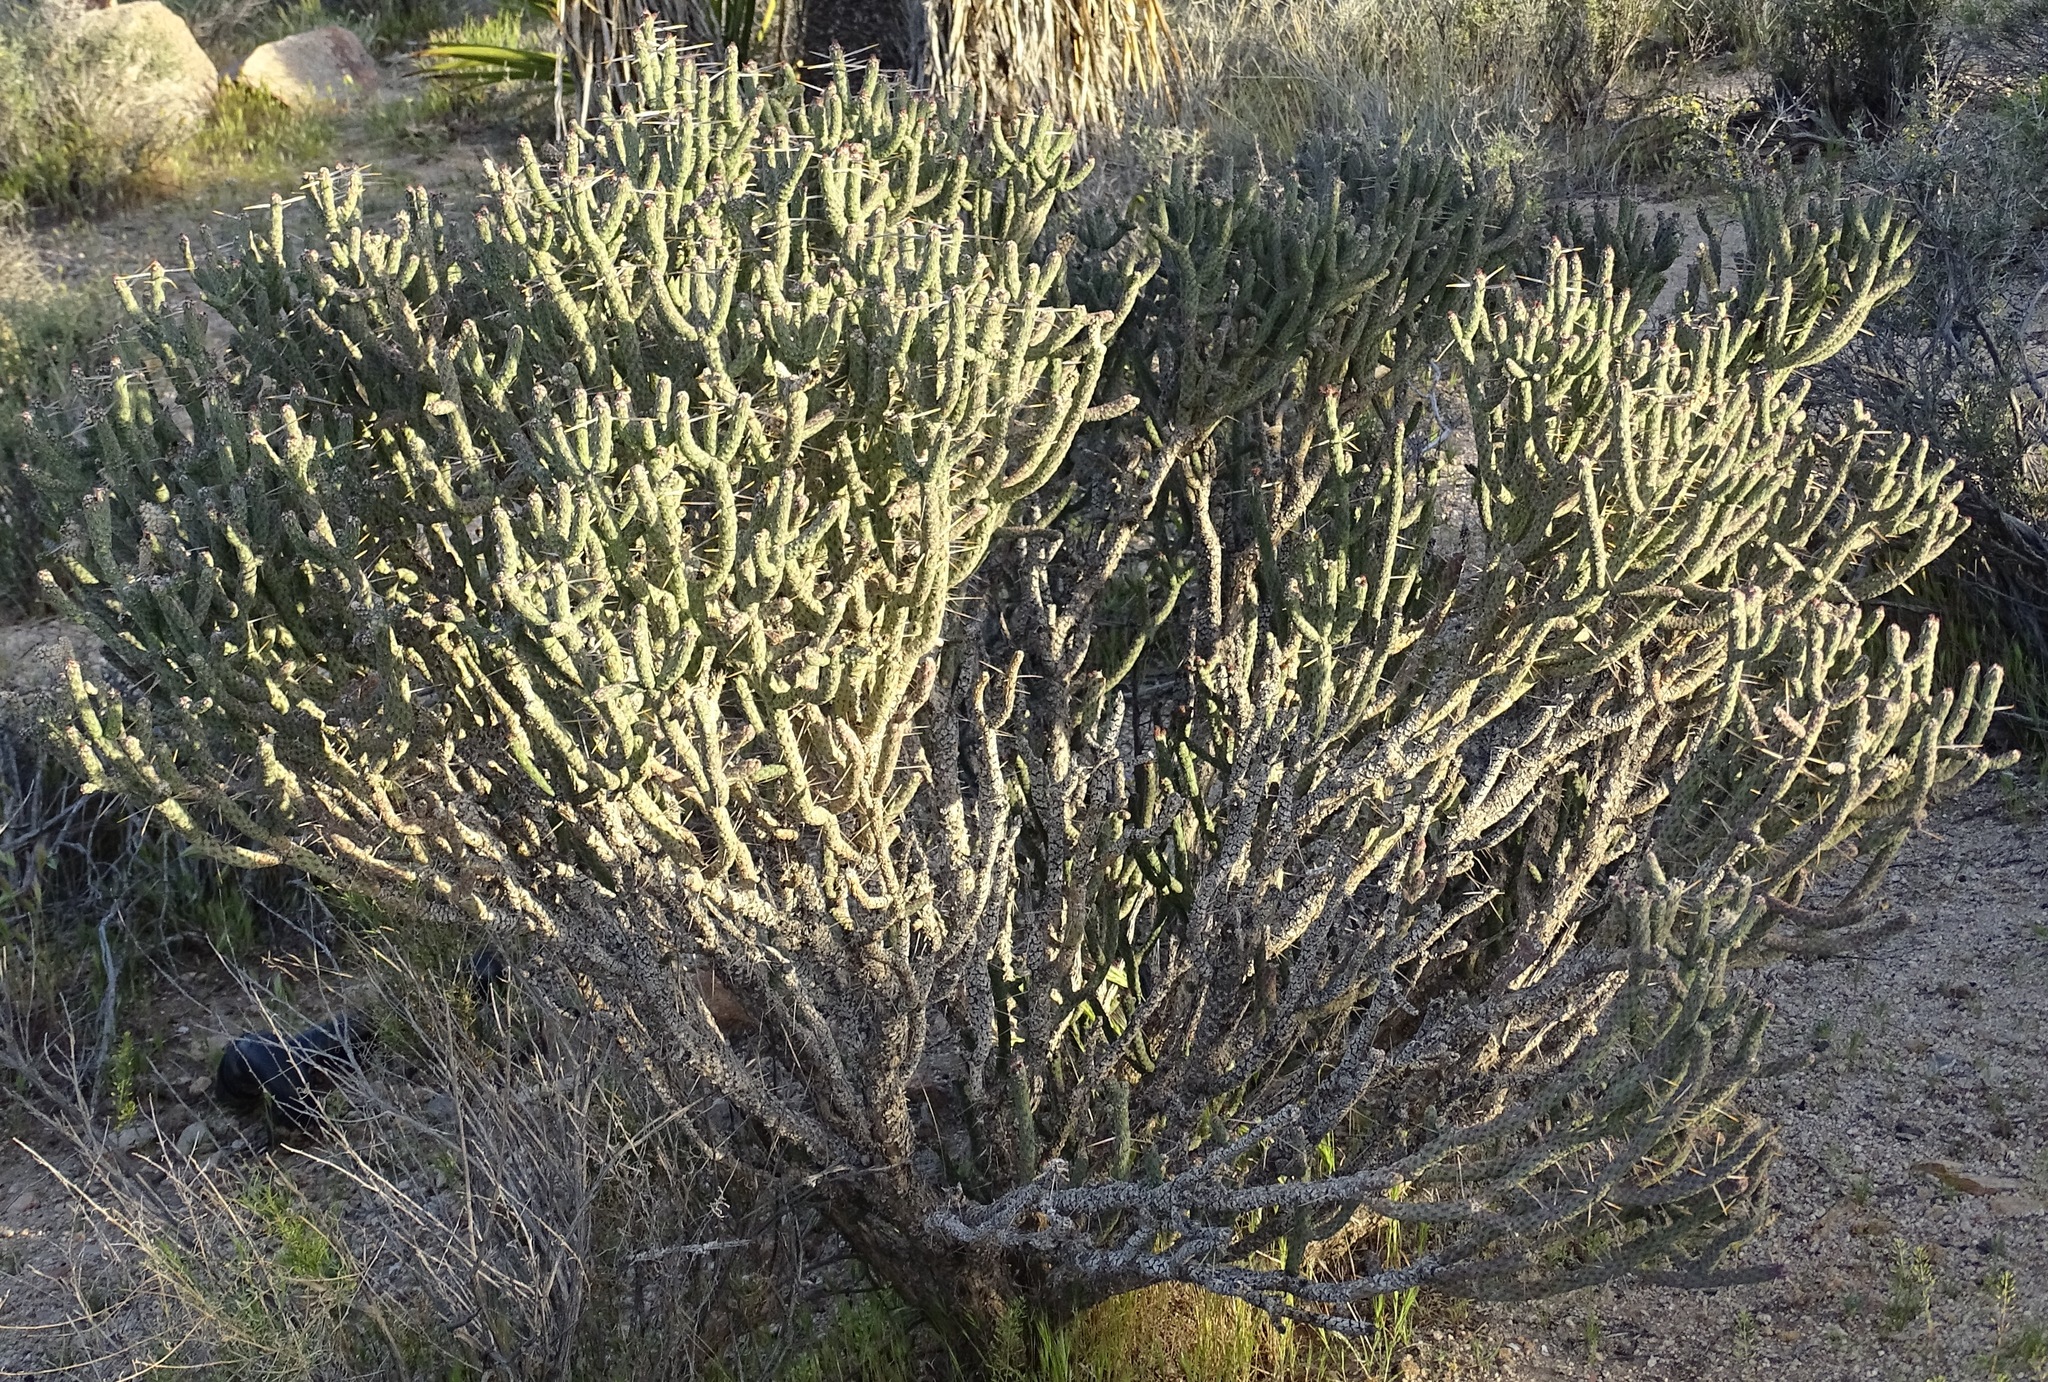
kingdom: Plantae
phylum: Tracheophyta
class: Magnoliopsida
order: Caryophyllales
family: Cactaceae
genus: Cylindropuntia
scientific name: Cylindropuntia ramosissima
